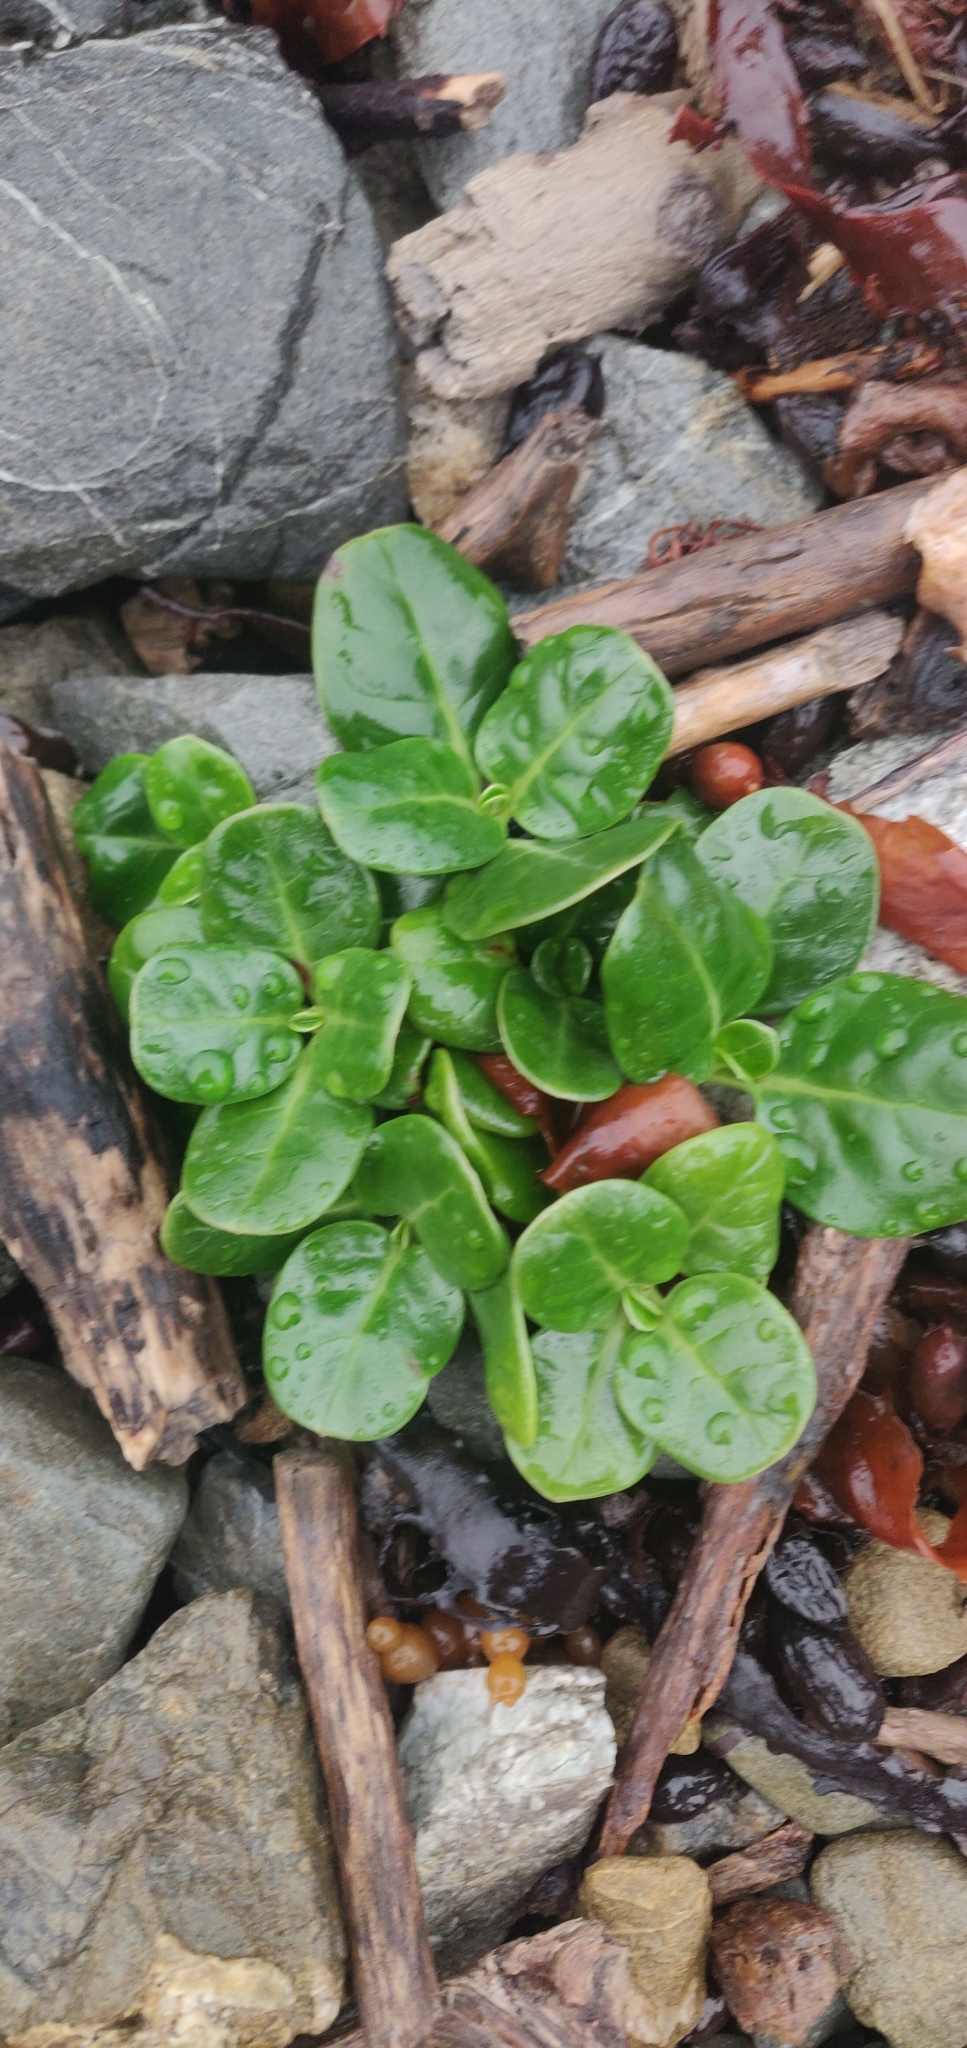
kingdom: Plantae
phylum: Tracheophyta
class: Magnoliopsida
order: Gentianales
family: Rubiaceae
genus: Coprosma
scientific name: Coprosma repens
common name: Tree bedstraw
